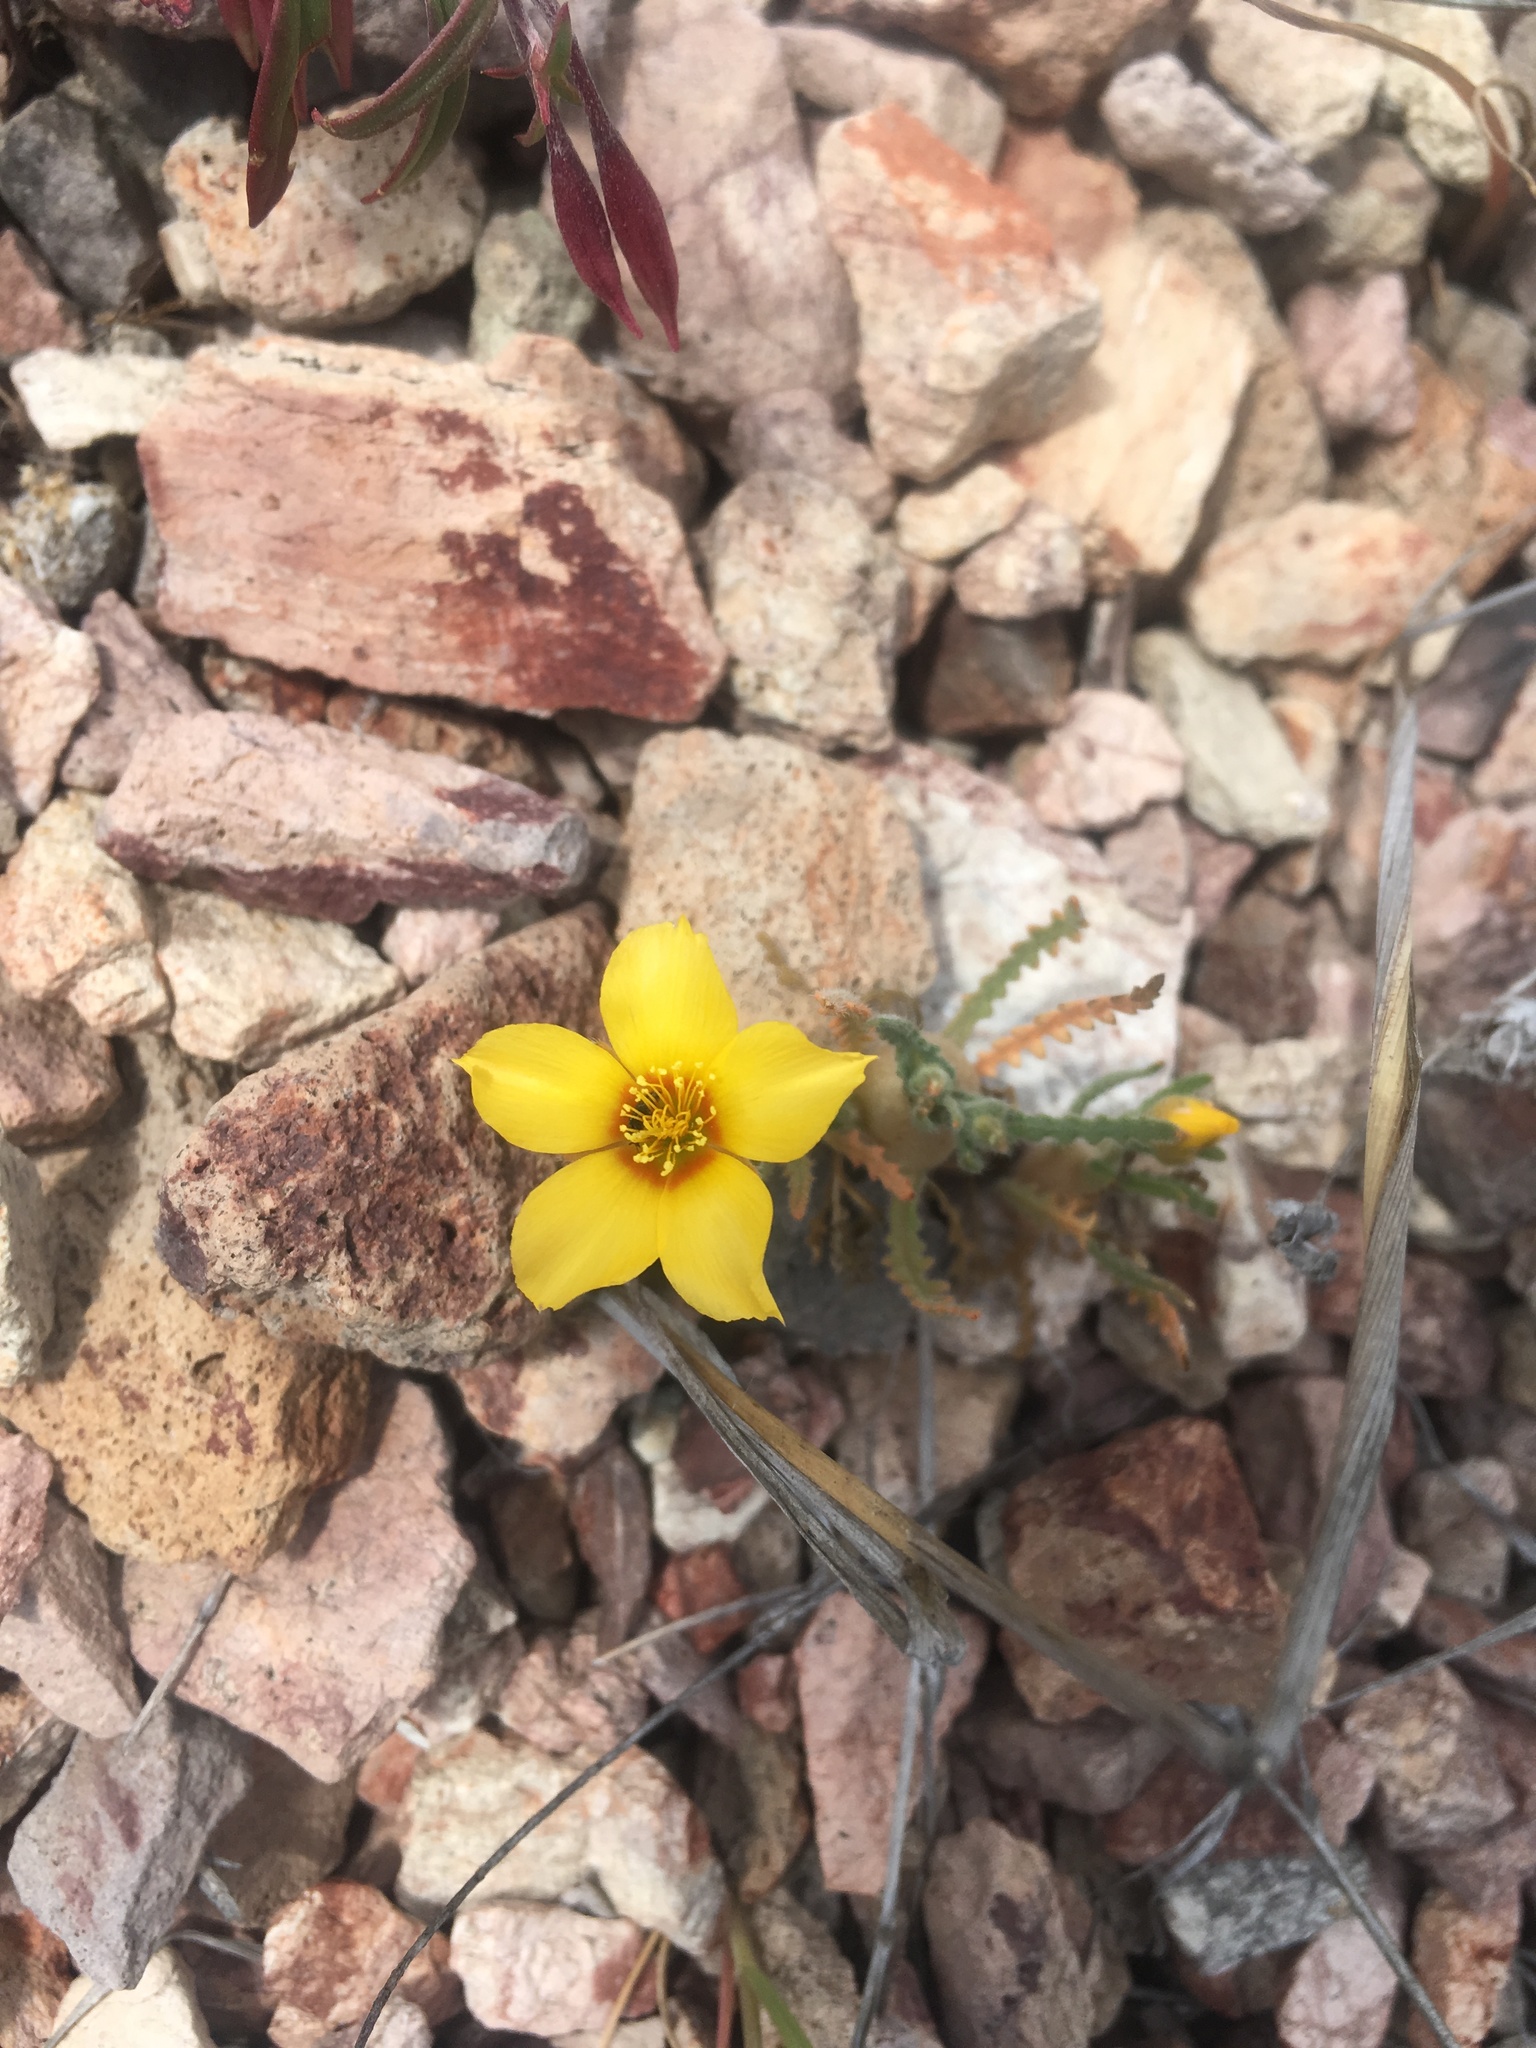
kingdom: Plantae
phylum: Tracheophyta
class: Magnoliopsida
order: Cornales
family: Loasaceae
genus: Mentzelia
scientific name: Mentzelia gracilenta
